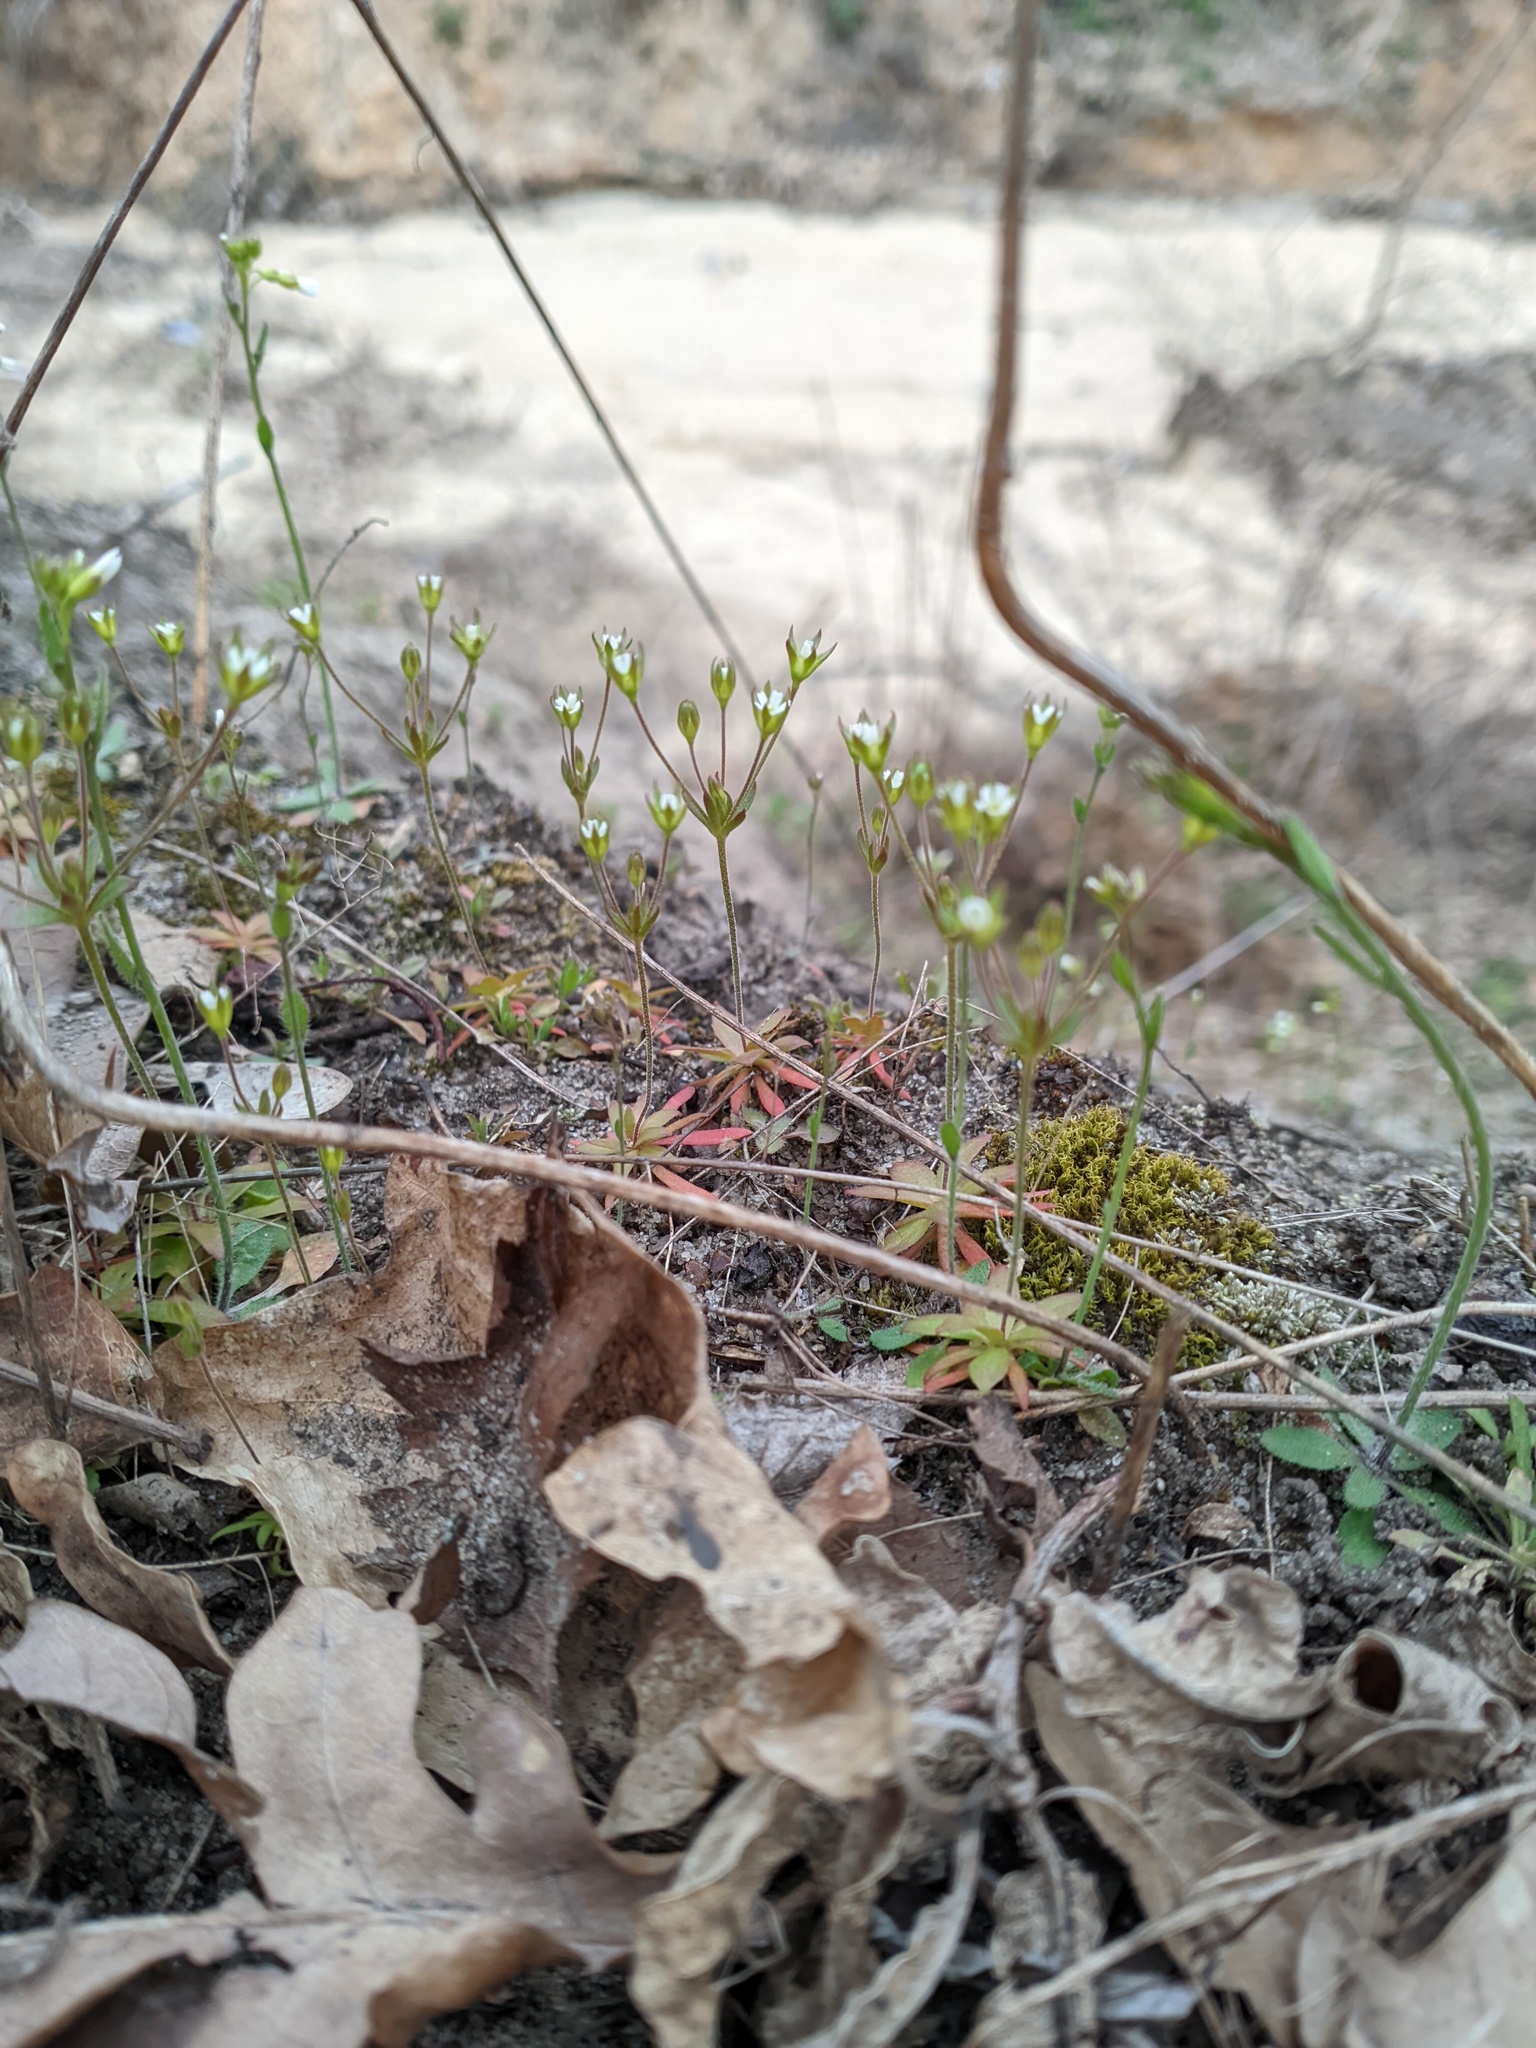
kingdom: Plantae
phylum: Tracheophyta
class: Magnoliopsida
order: Ericales
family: Primulaceae
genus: Androsace
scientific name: Androsace elongata
